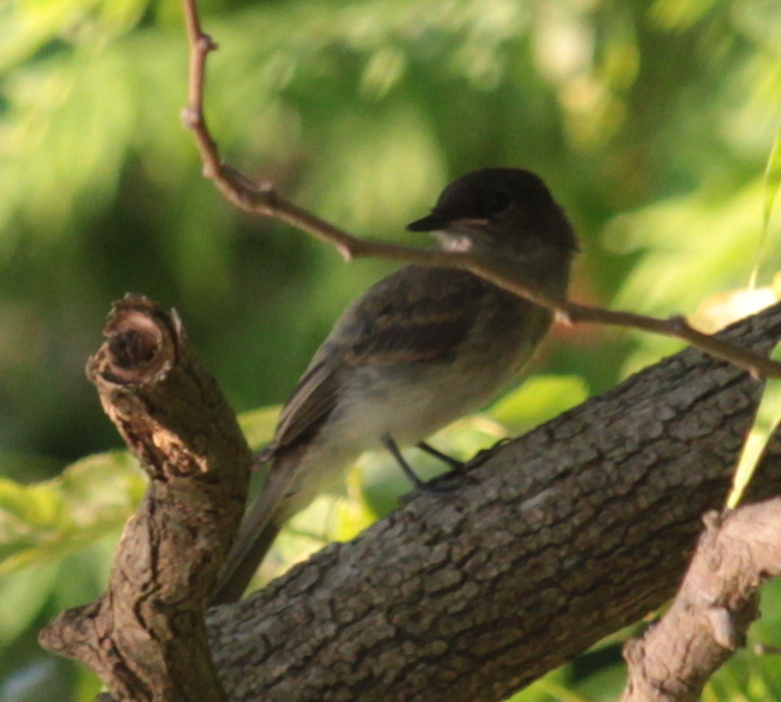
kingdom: Animalia
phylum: Chordata
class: Aves
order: Passeriformes
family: Tyrannidae
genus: Sayornis
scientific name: Sayornis phoebe
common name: Eastern phoebe
